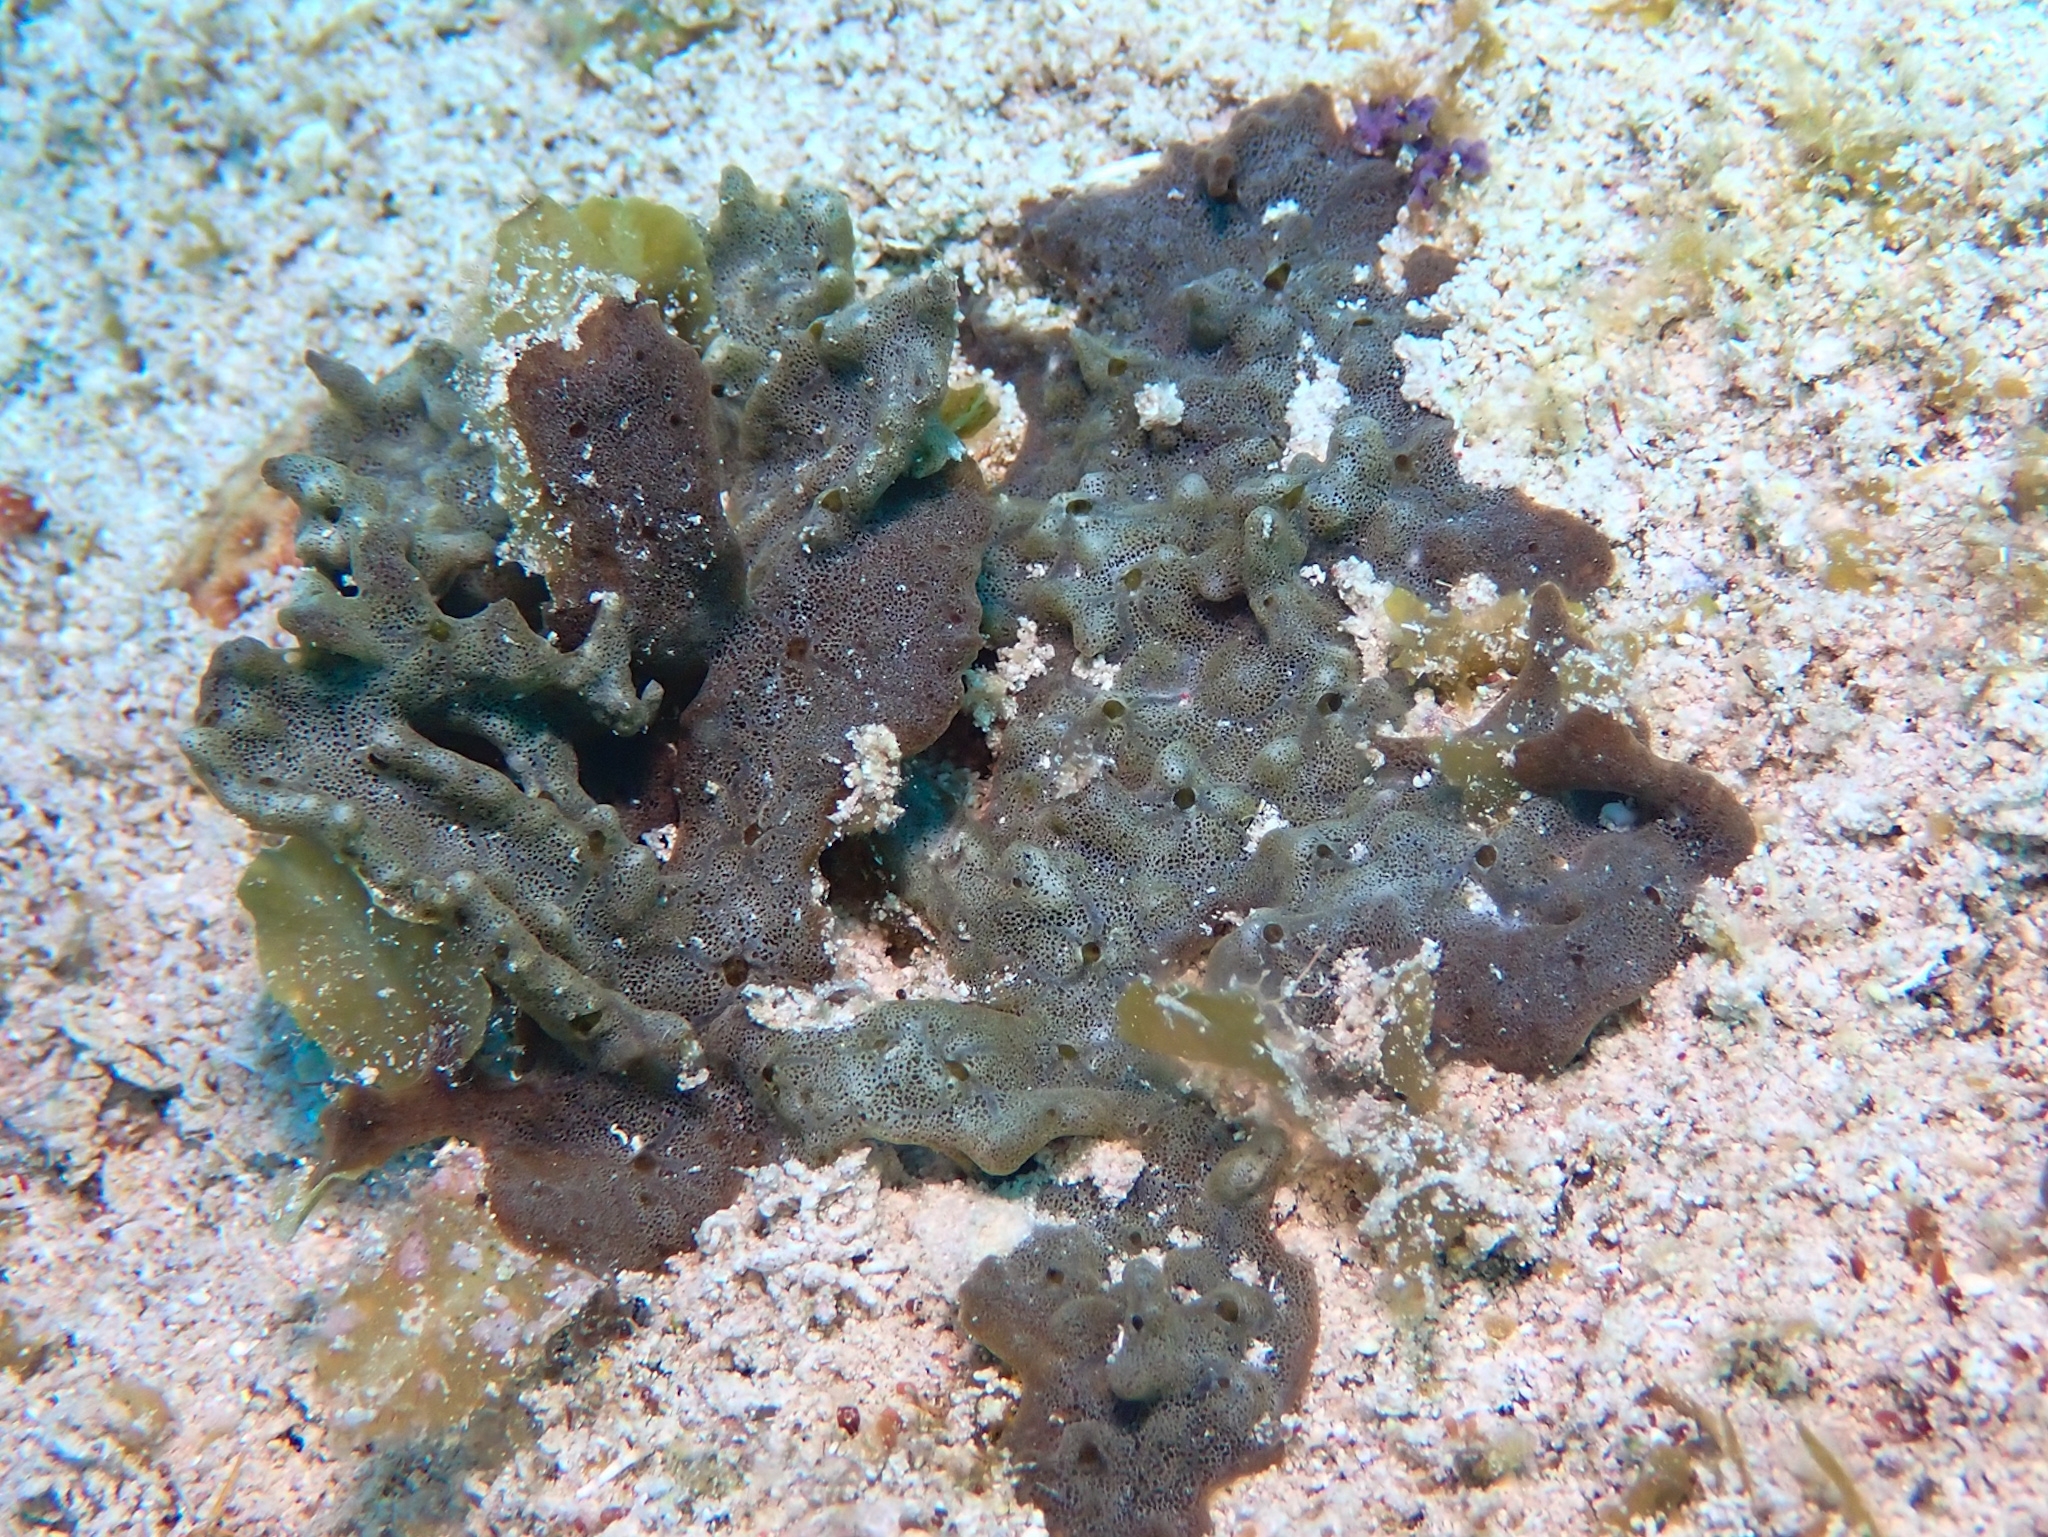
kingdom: Animalia
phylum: Porifera
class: Demospongiae
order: Bubarida
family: Dictyonellidae
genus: Dictyonella
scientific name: Dictyonella funicularis
